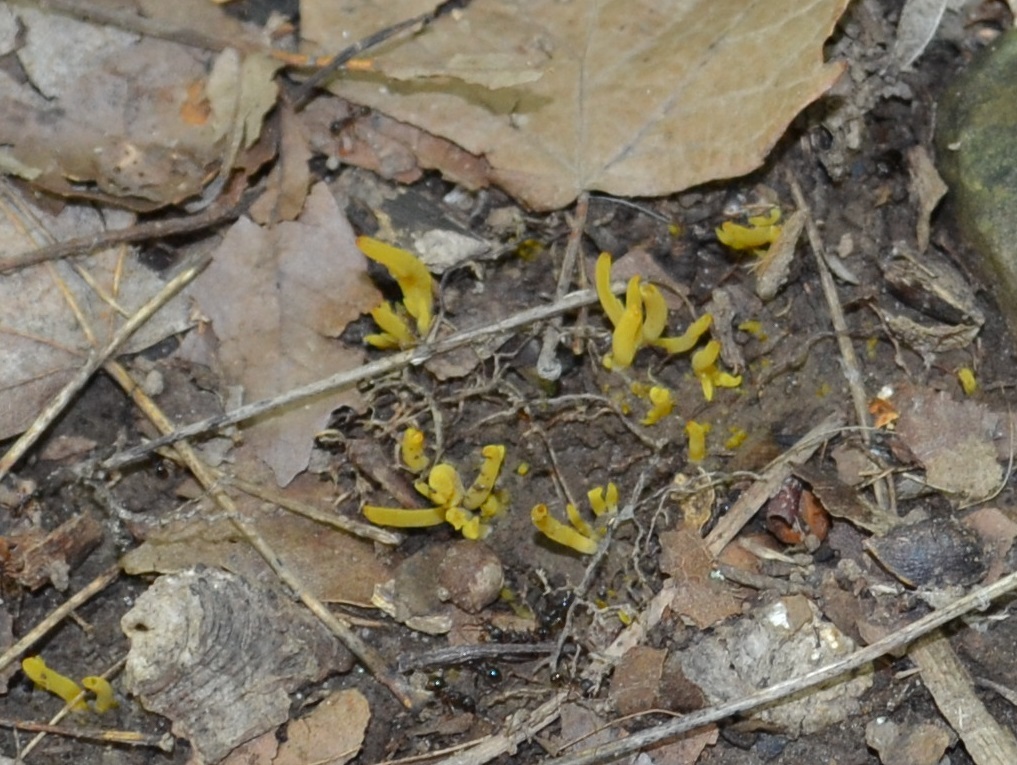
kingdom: Fungi
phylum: Basidiomycota
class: Agaricomycetes
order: Agaricales
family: Clavariaceae
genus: Clavulinopsis
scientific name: Clavulinopsis fusiformis
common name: Golden spindles
